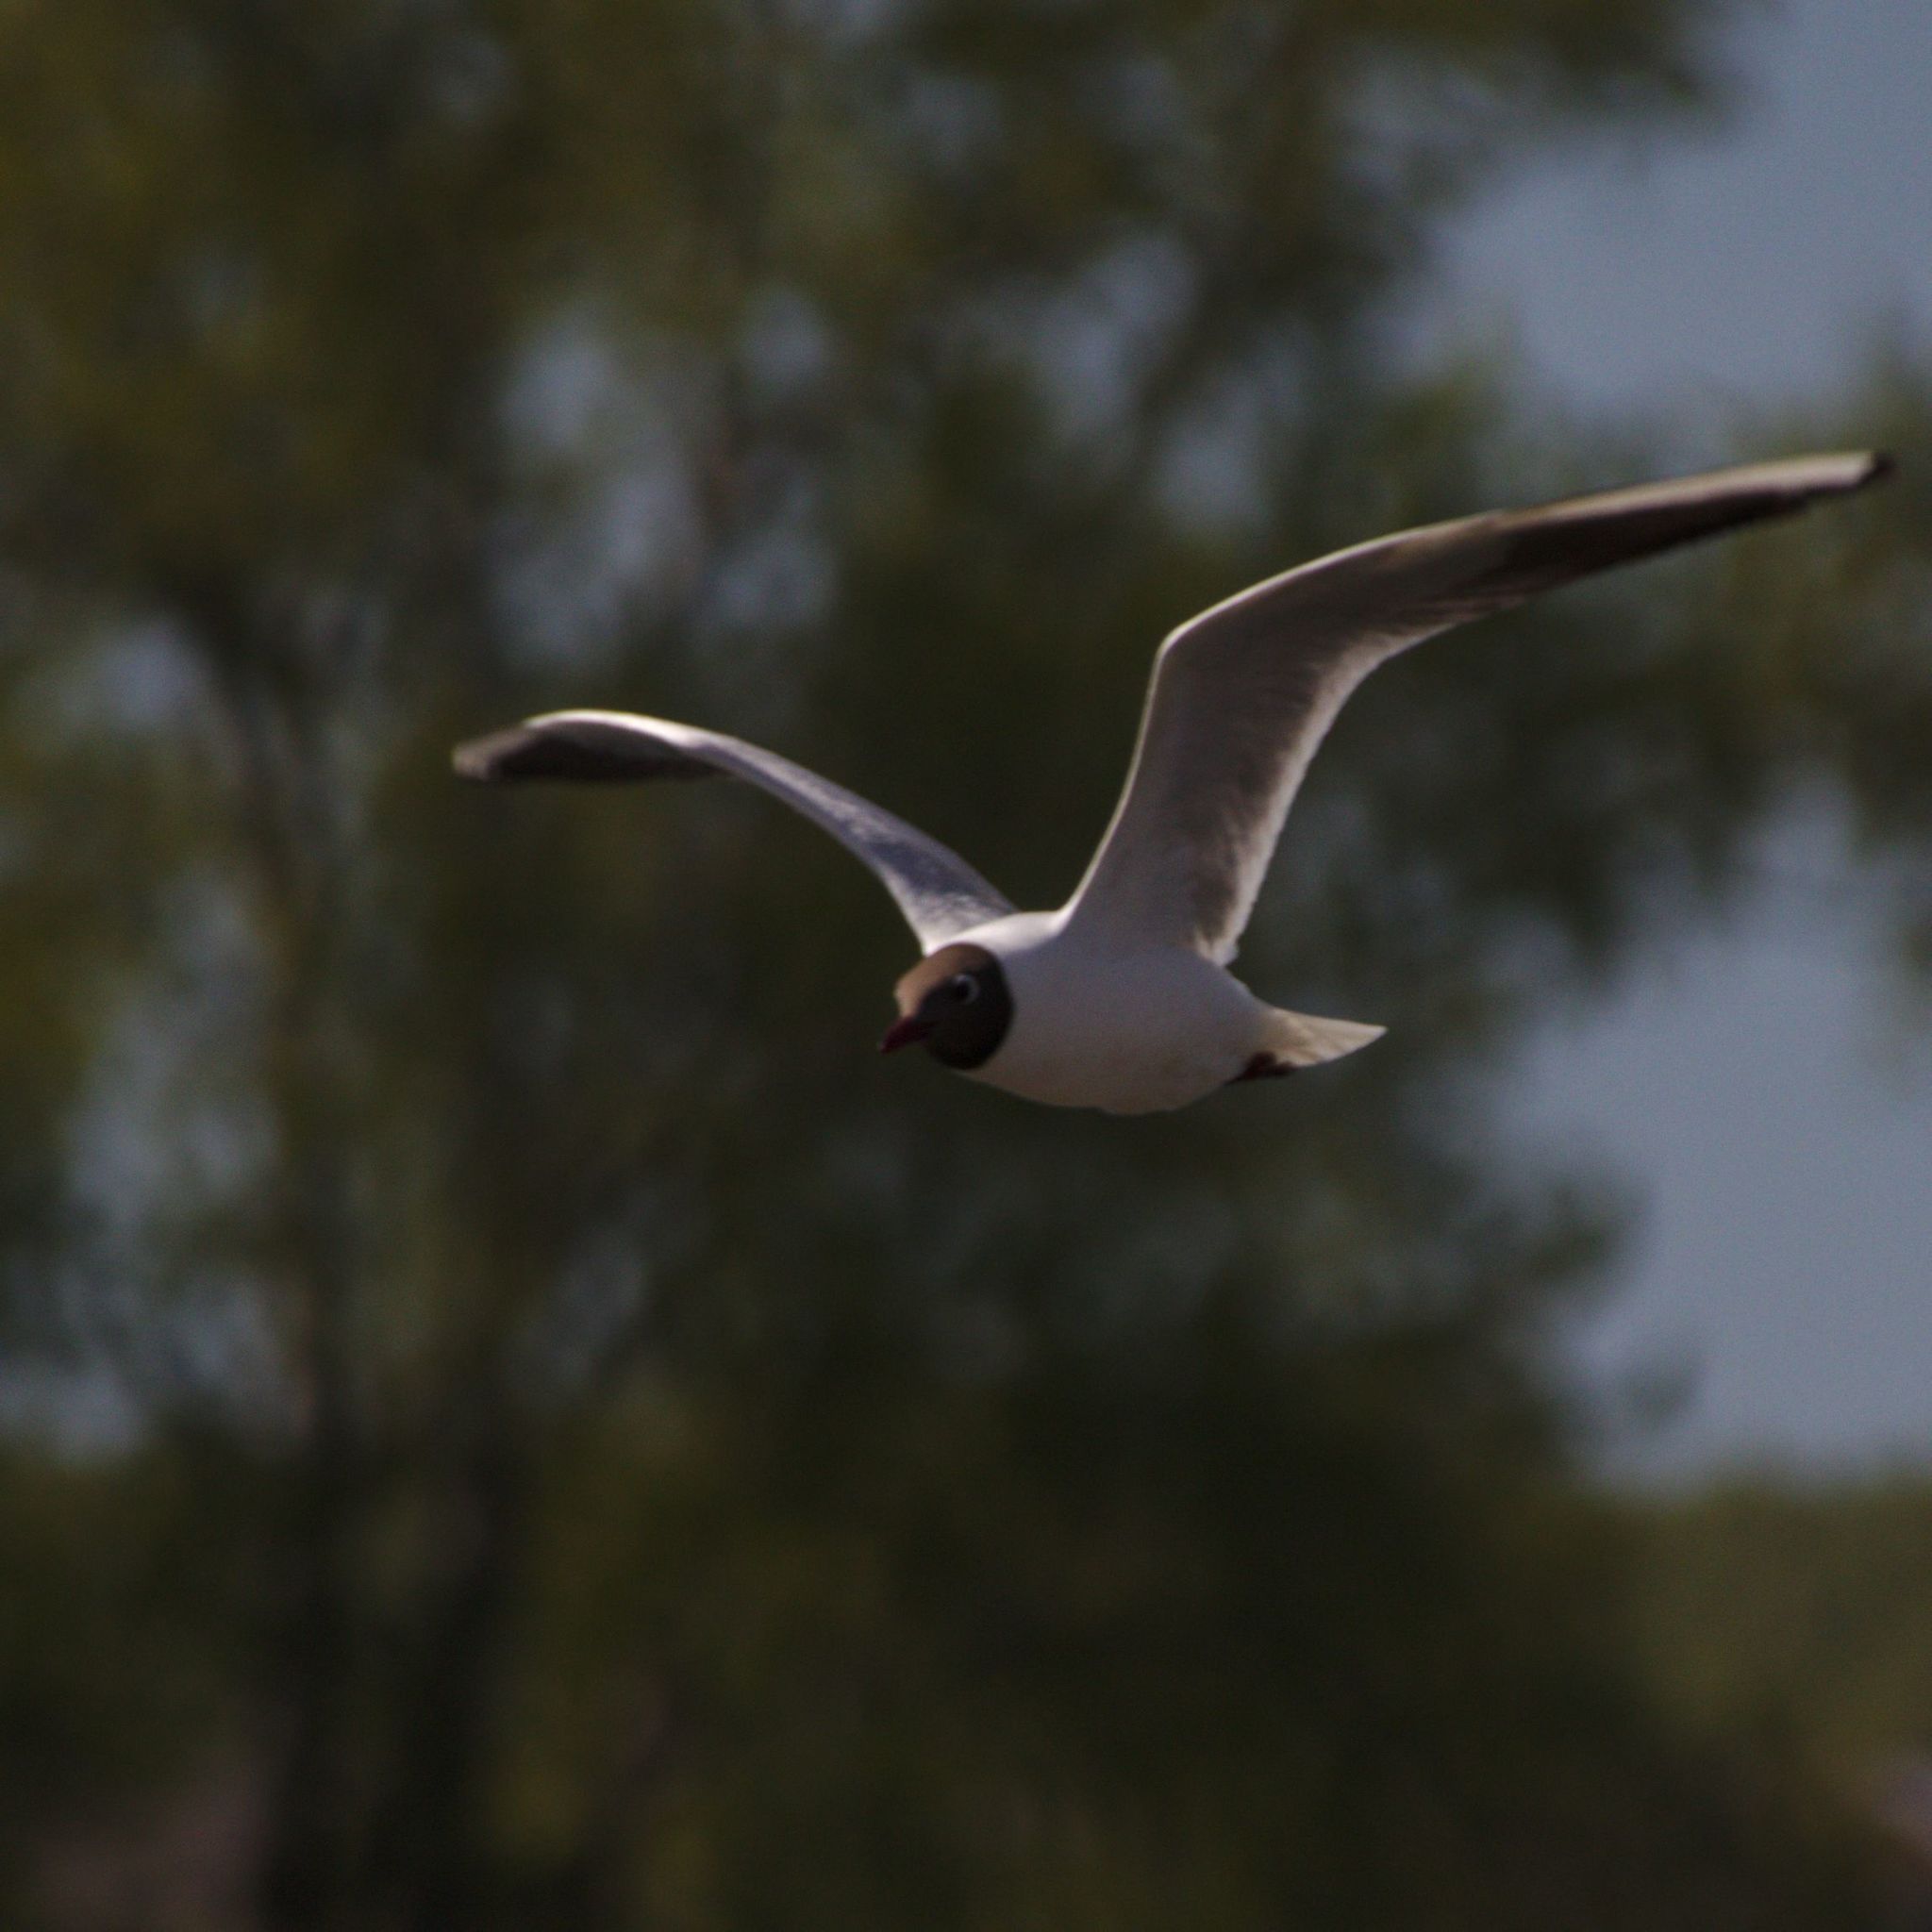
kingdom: Animalia
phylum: Chordata
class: Aves
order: Charadriiformes
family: Laridae
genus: Chroicocephalus
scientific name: Chroicocephalus ridibundus
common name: Black-headed gull
